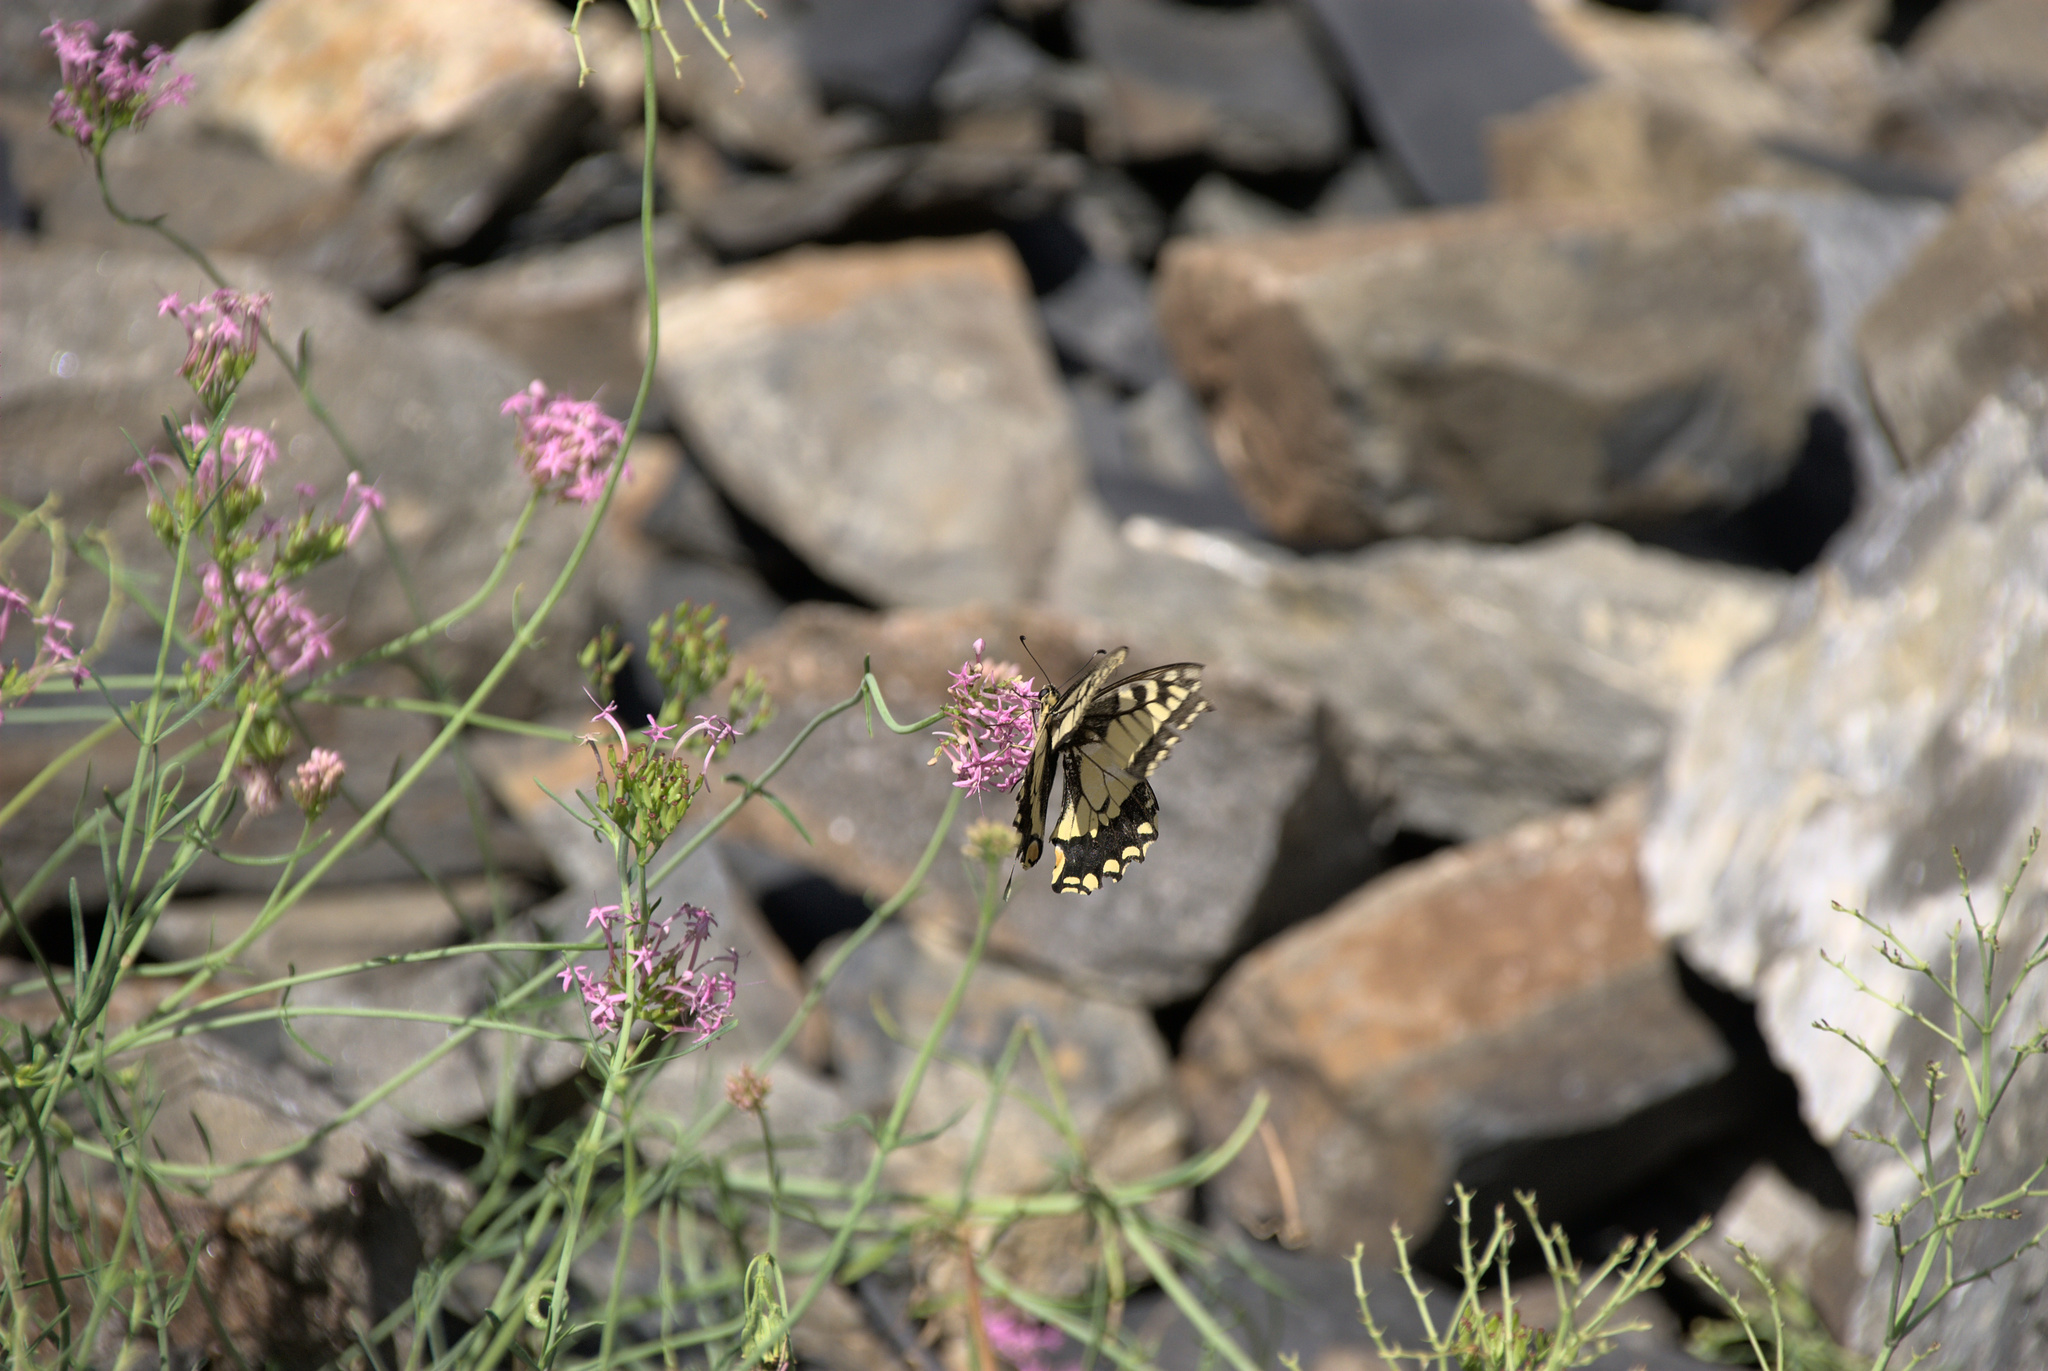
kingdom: Animalia
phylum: Arthropoda
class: Insecta
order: Lepidoptera
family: Papilionidae
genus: Papilio
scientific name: Papilio machaon
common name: Swallowtail
